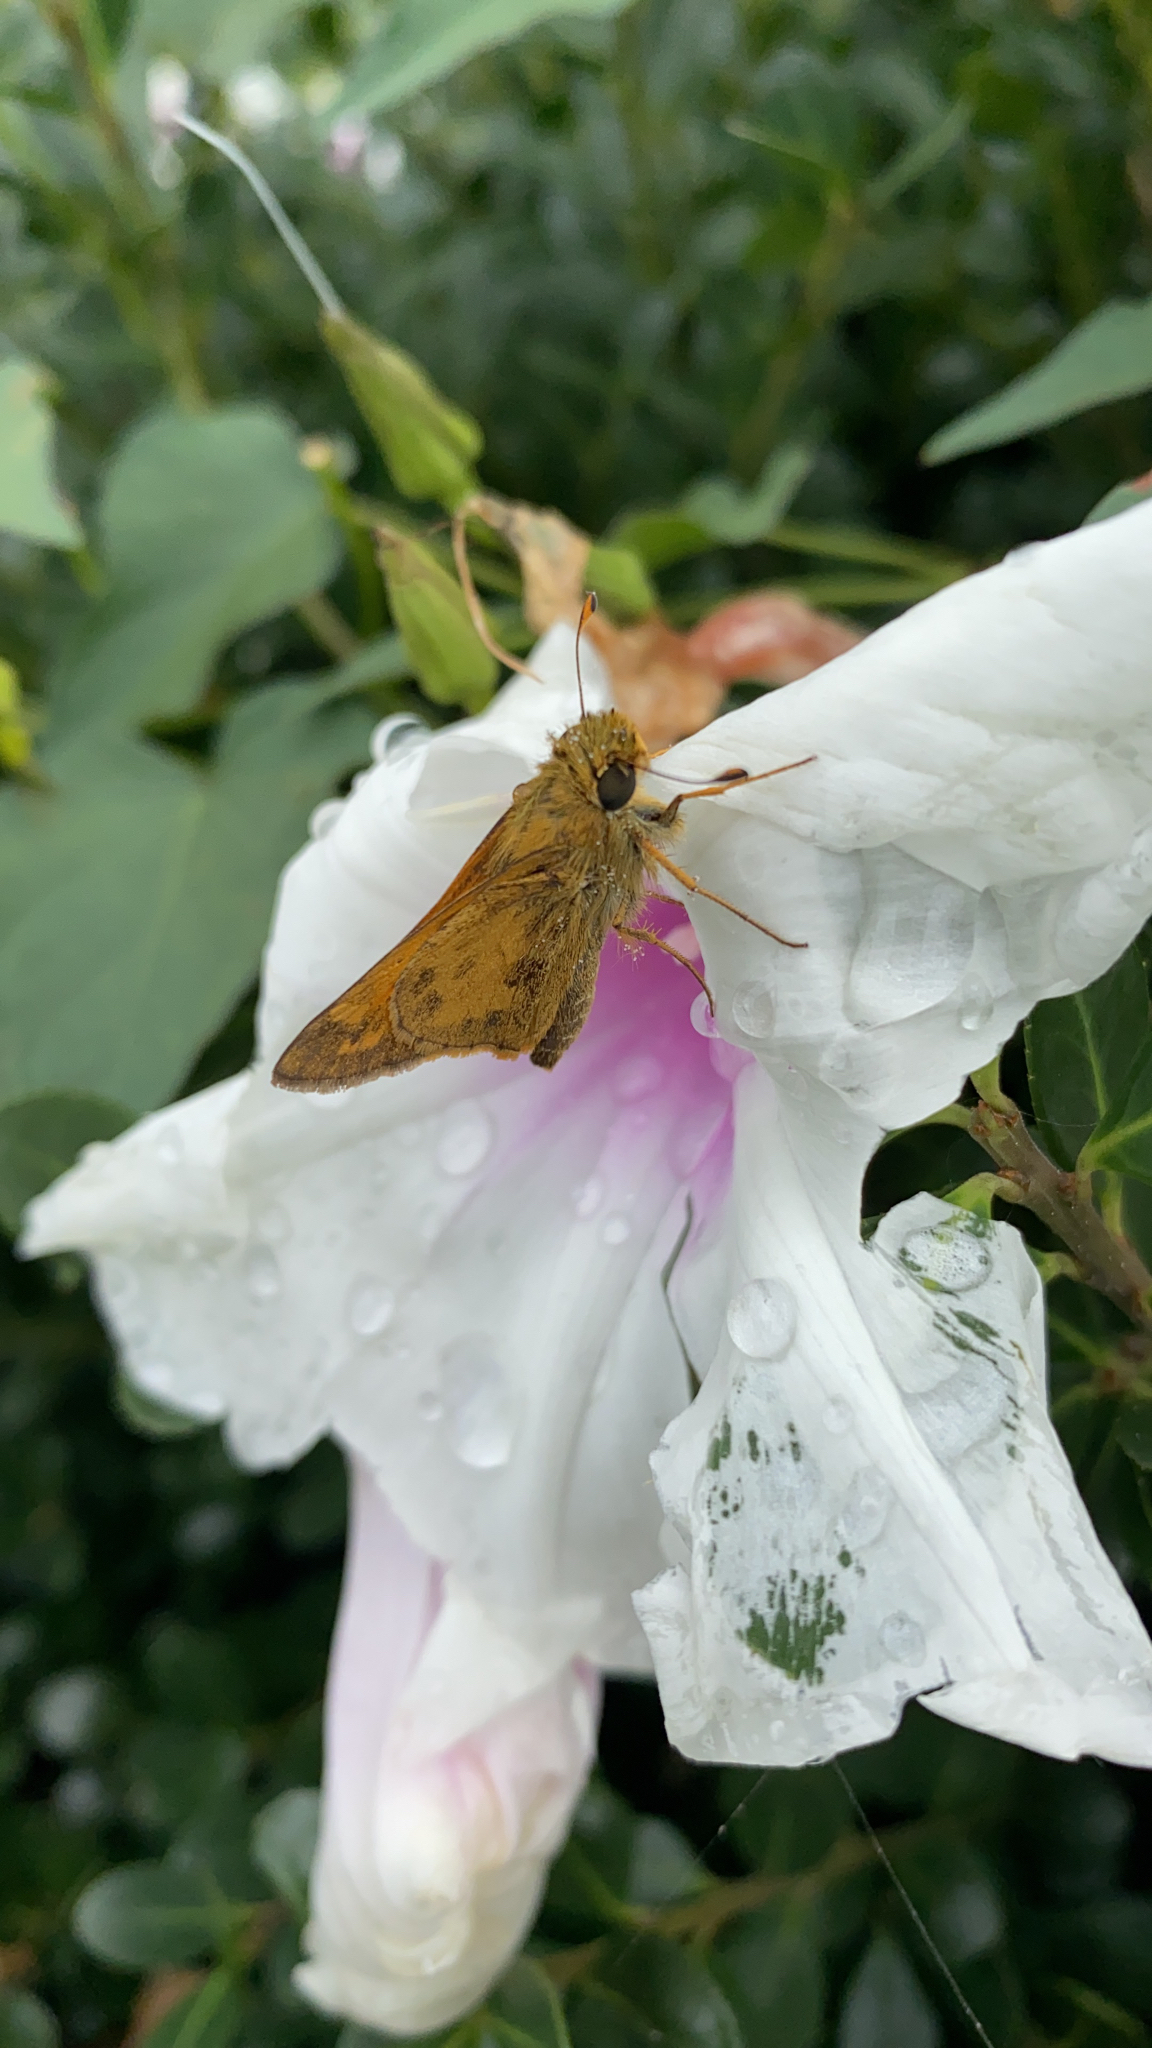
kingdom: Animalia
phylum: Arthropoda
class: Insecta
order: Lepidoptera
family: Hesperiidae
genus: Atalopedes
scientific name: Atalopedes
